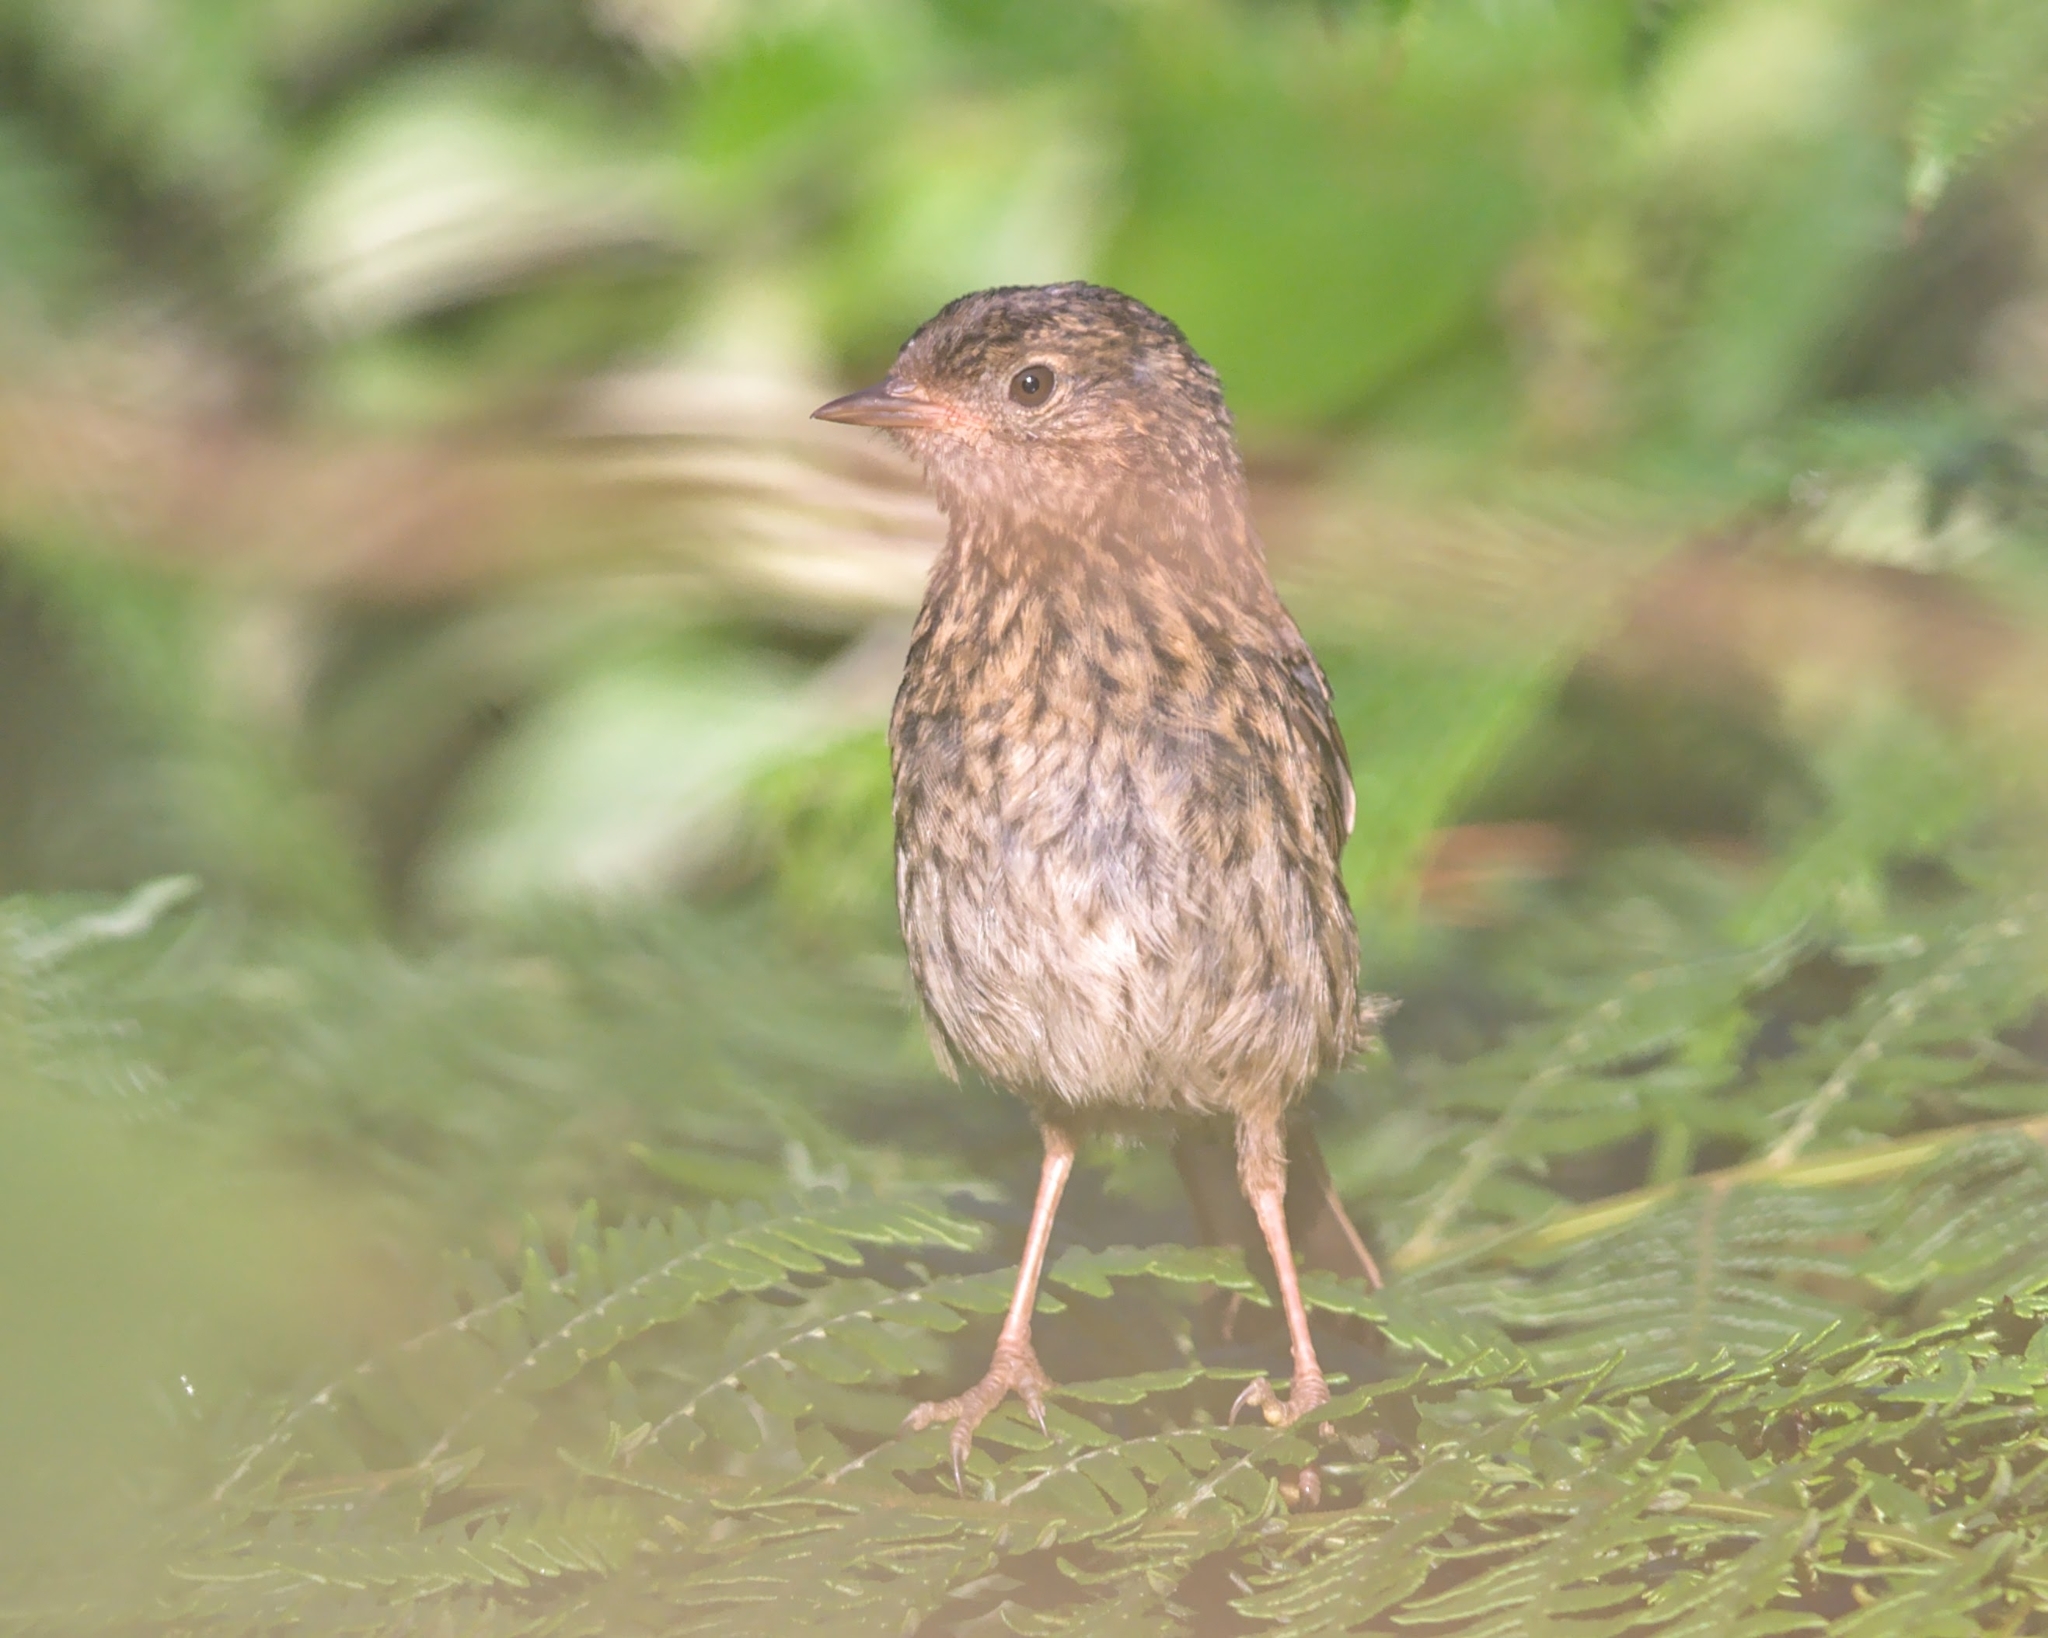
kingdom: Animalia
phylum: Chordata
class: Aves
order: Passeriformes
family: Prunellidae
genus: Prunella
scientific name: Prunella modularis
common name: Dunnock
